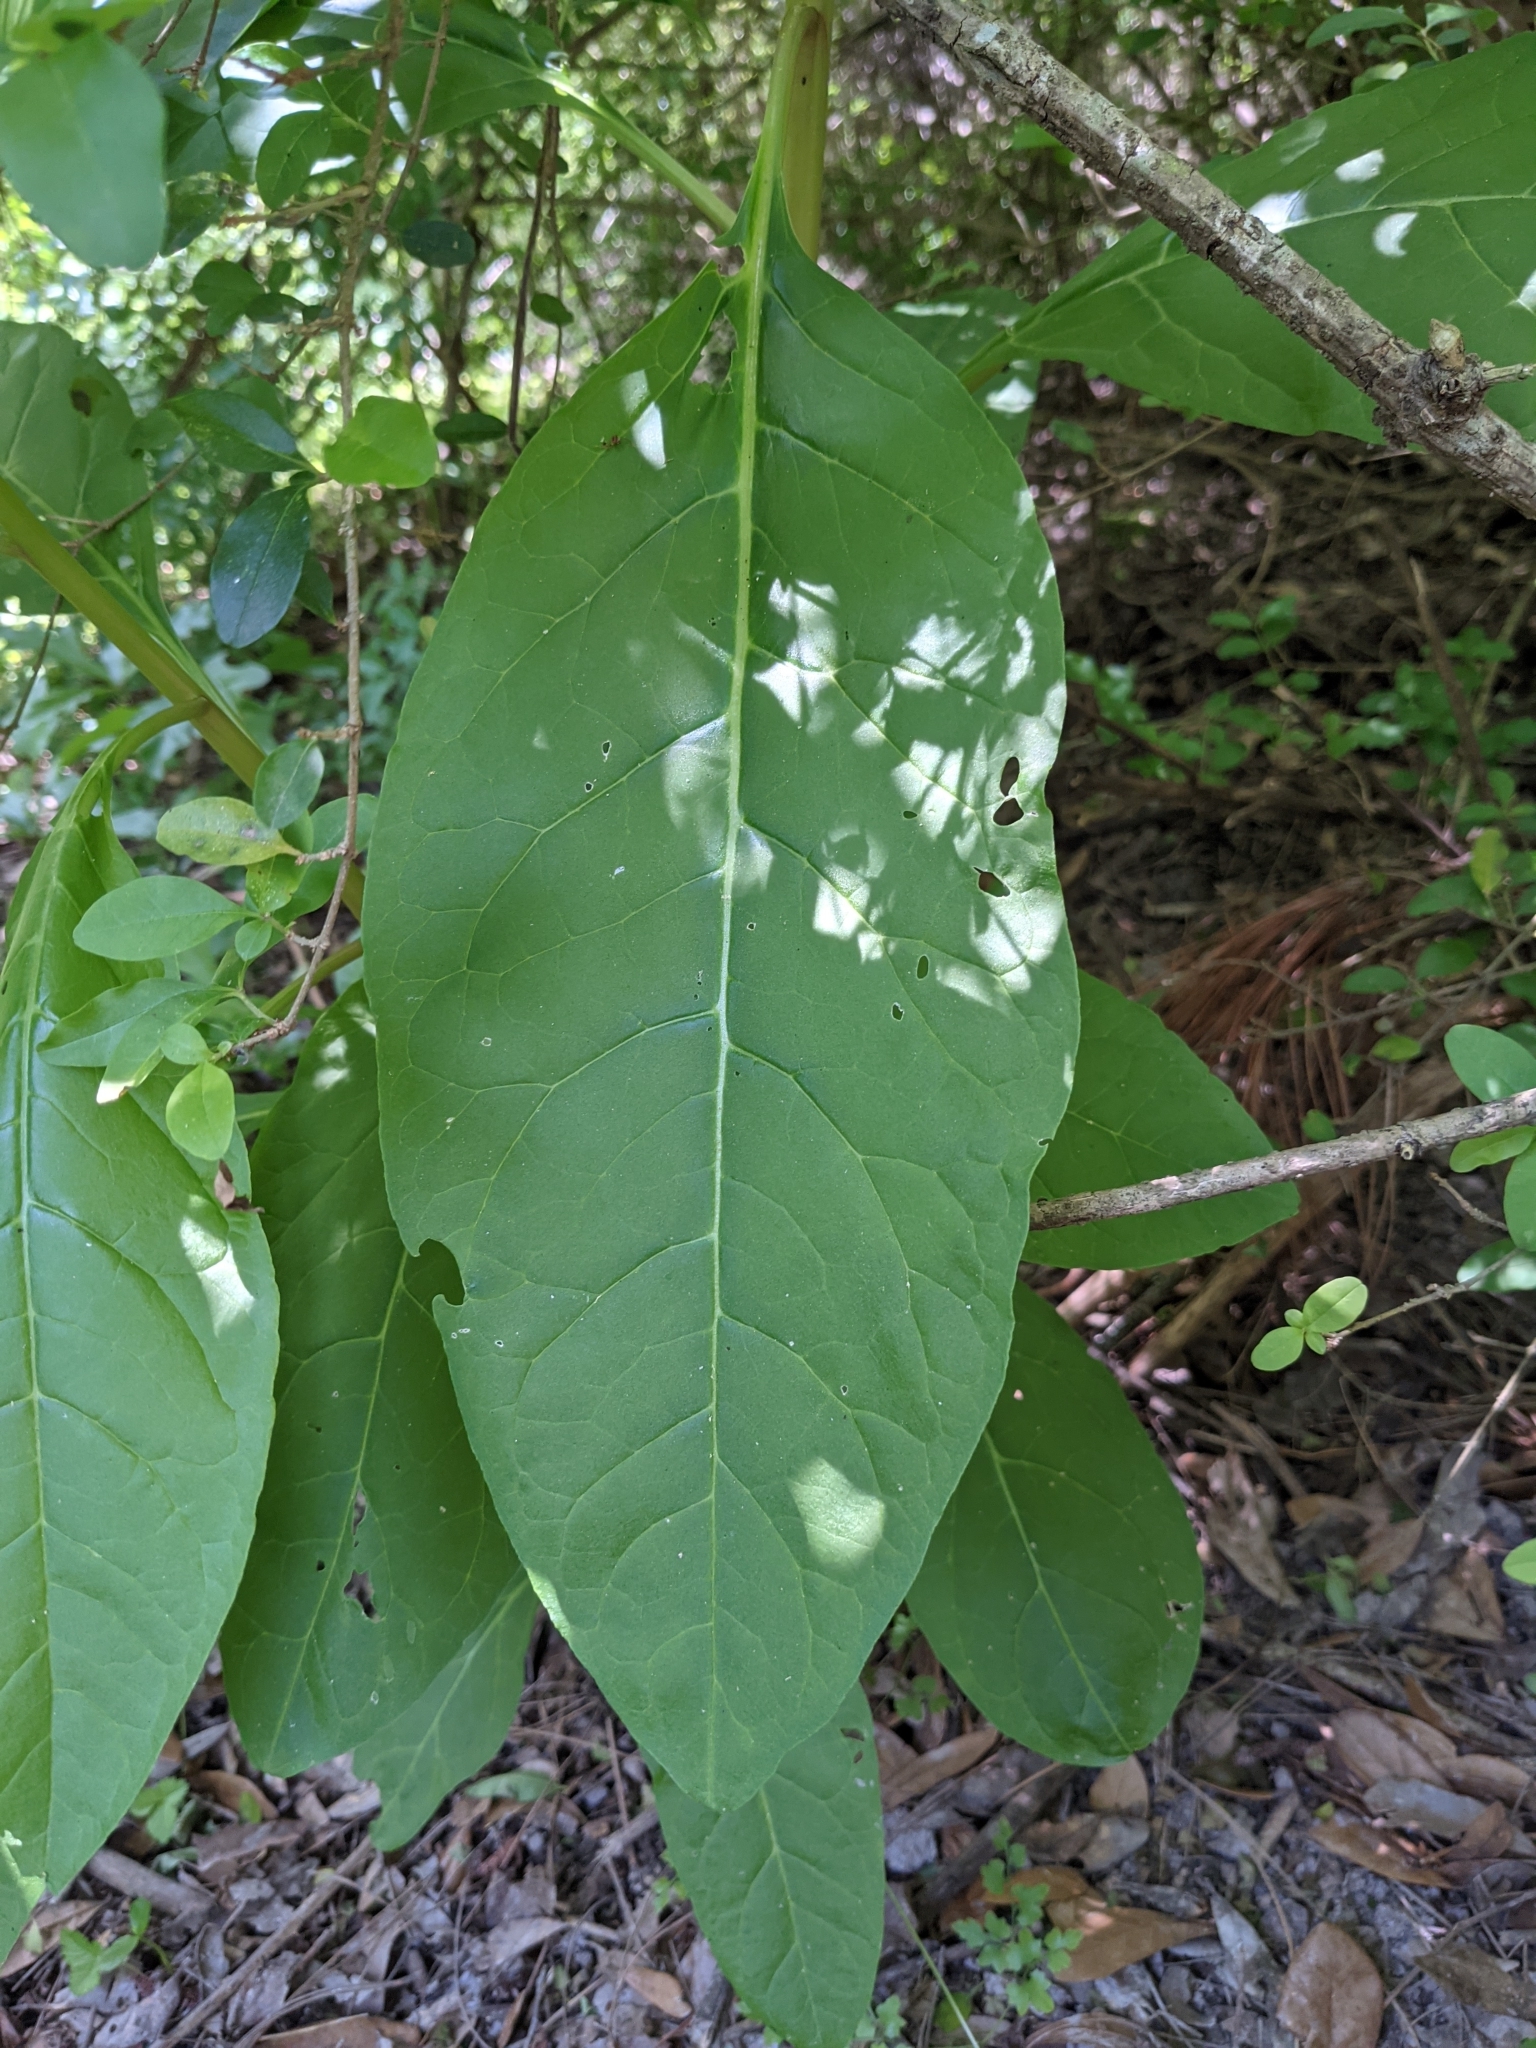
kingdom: Plantae
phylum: Tracheophyta
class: Magnoliopsida
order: Caryophyllales
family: Phytolaccaceae
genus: Phytolacca
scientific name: Phytolacca americana
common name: American pokeweed
